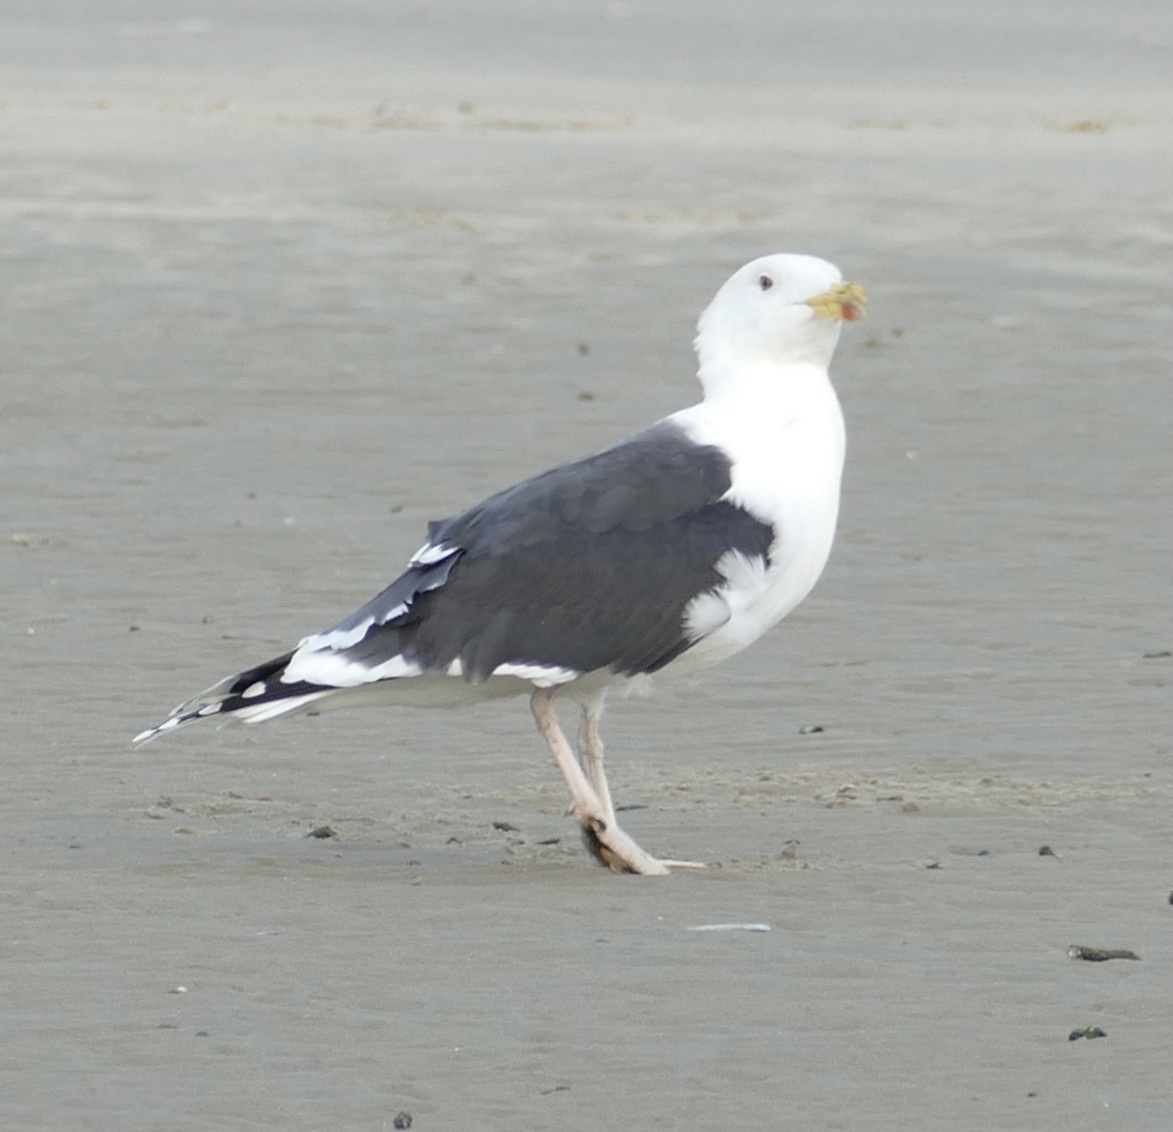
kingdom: Animalia
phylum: Chordata
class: Aves
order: Charadriiformes
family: Laridae
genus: Larus
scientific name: Larus marinus
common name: Great black-backed gull
